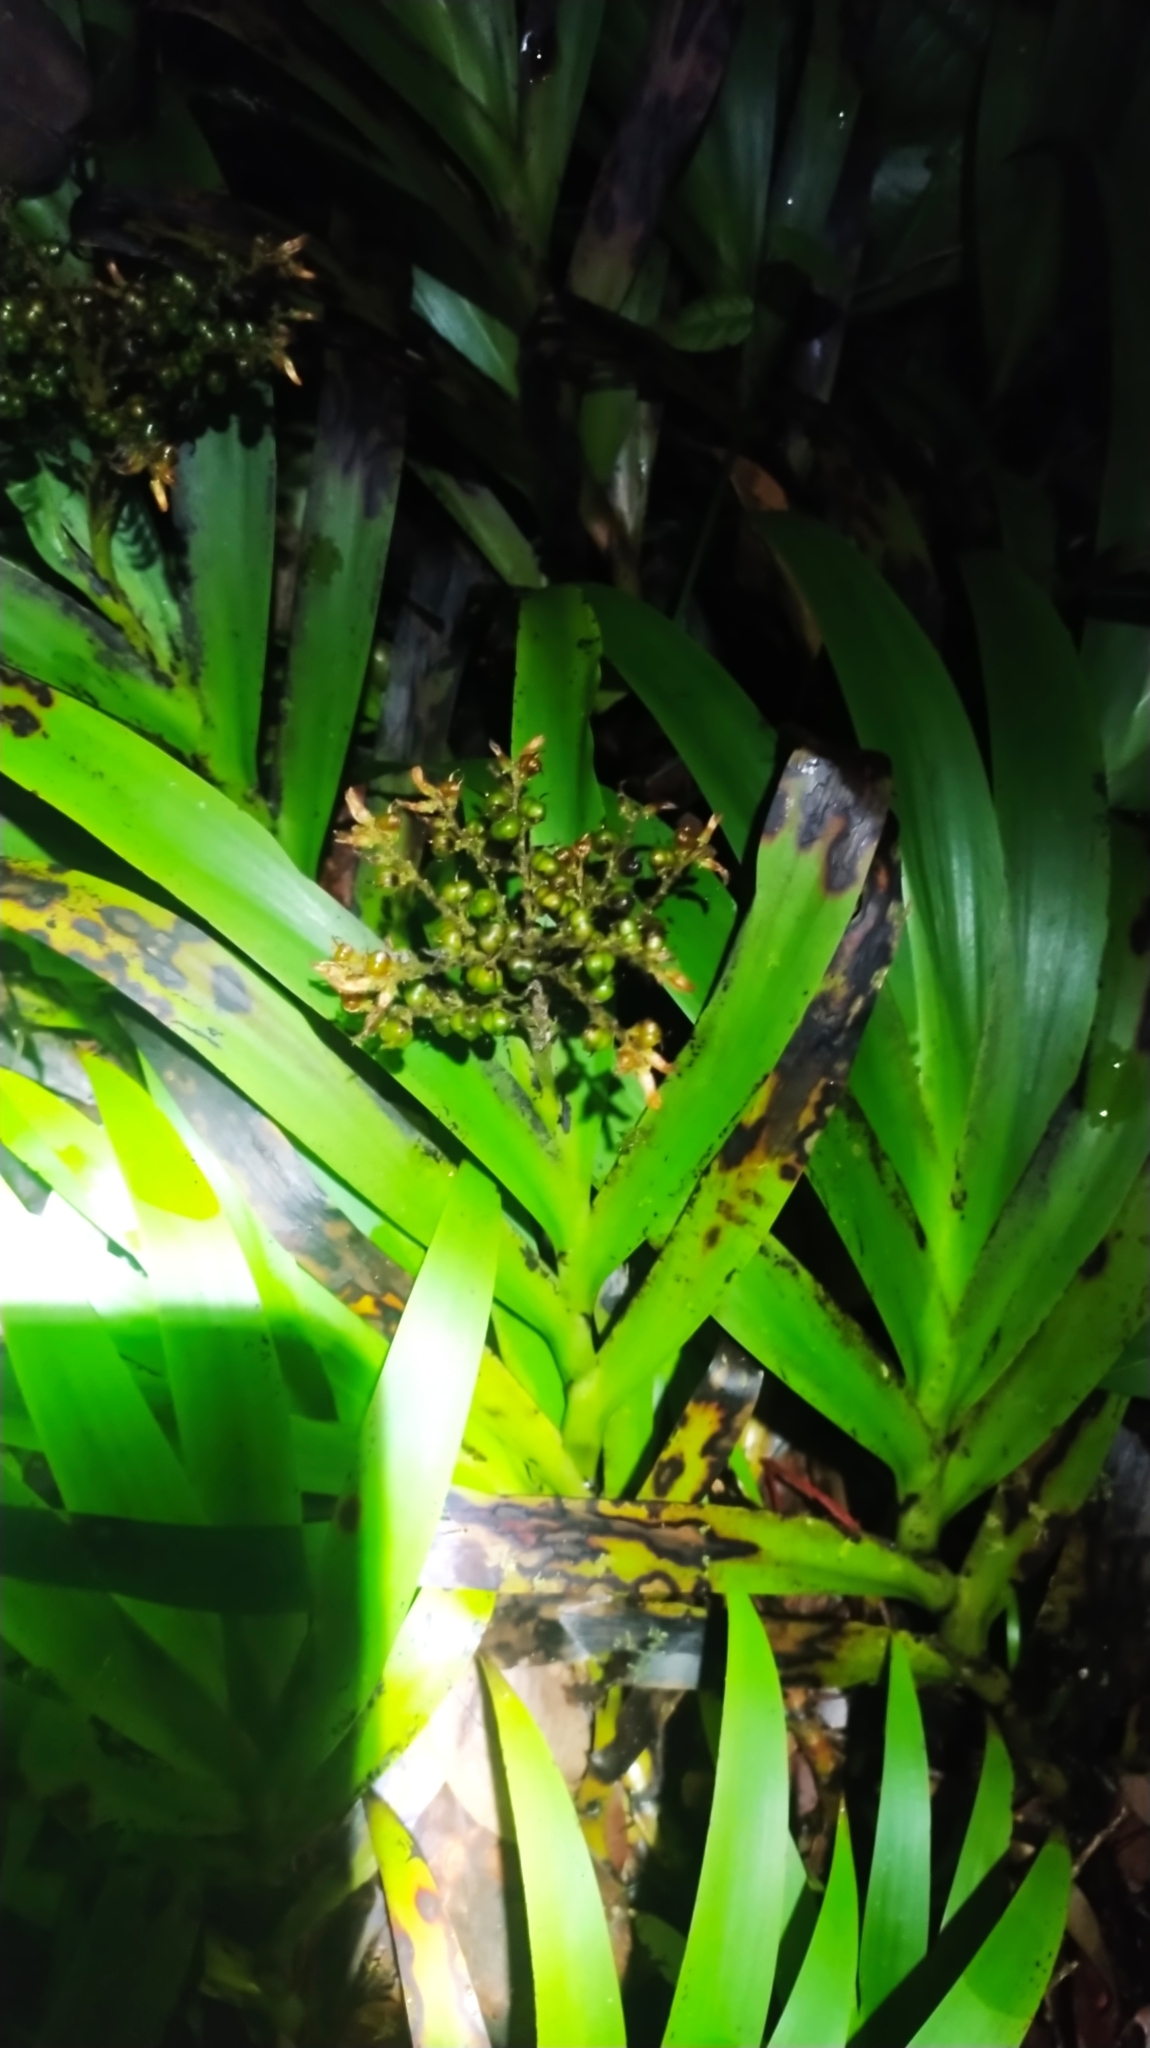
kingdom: Plantae
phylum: Tracheophyta
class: Liliopsida
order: Commelinales
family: Haemodoraceae
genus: Schiekia
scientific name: Schiekia silvestris
